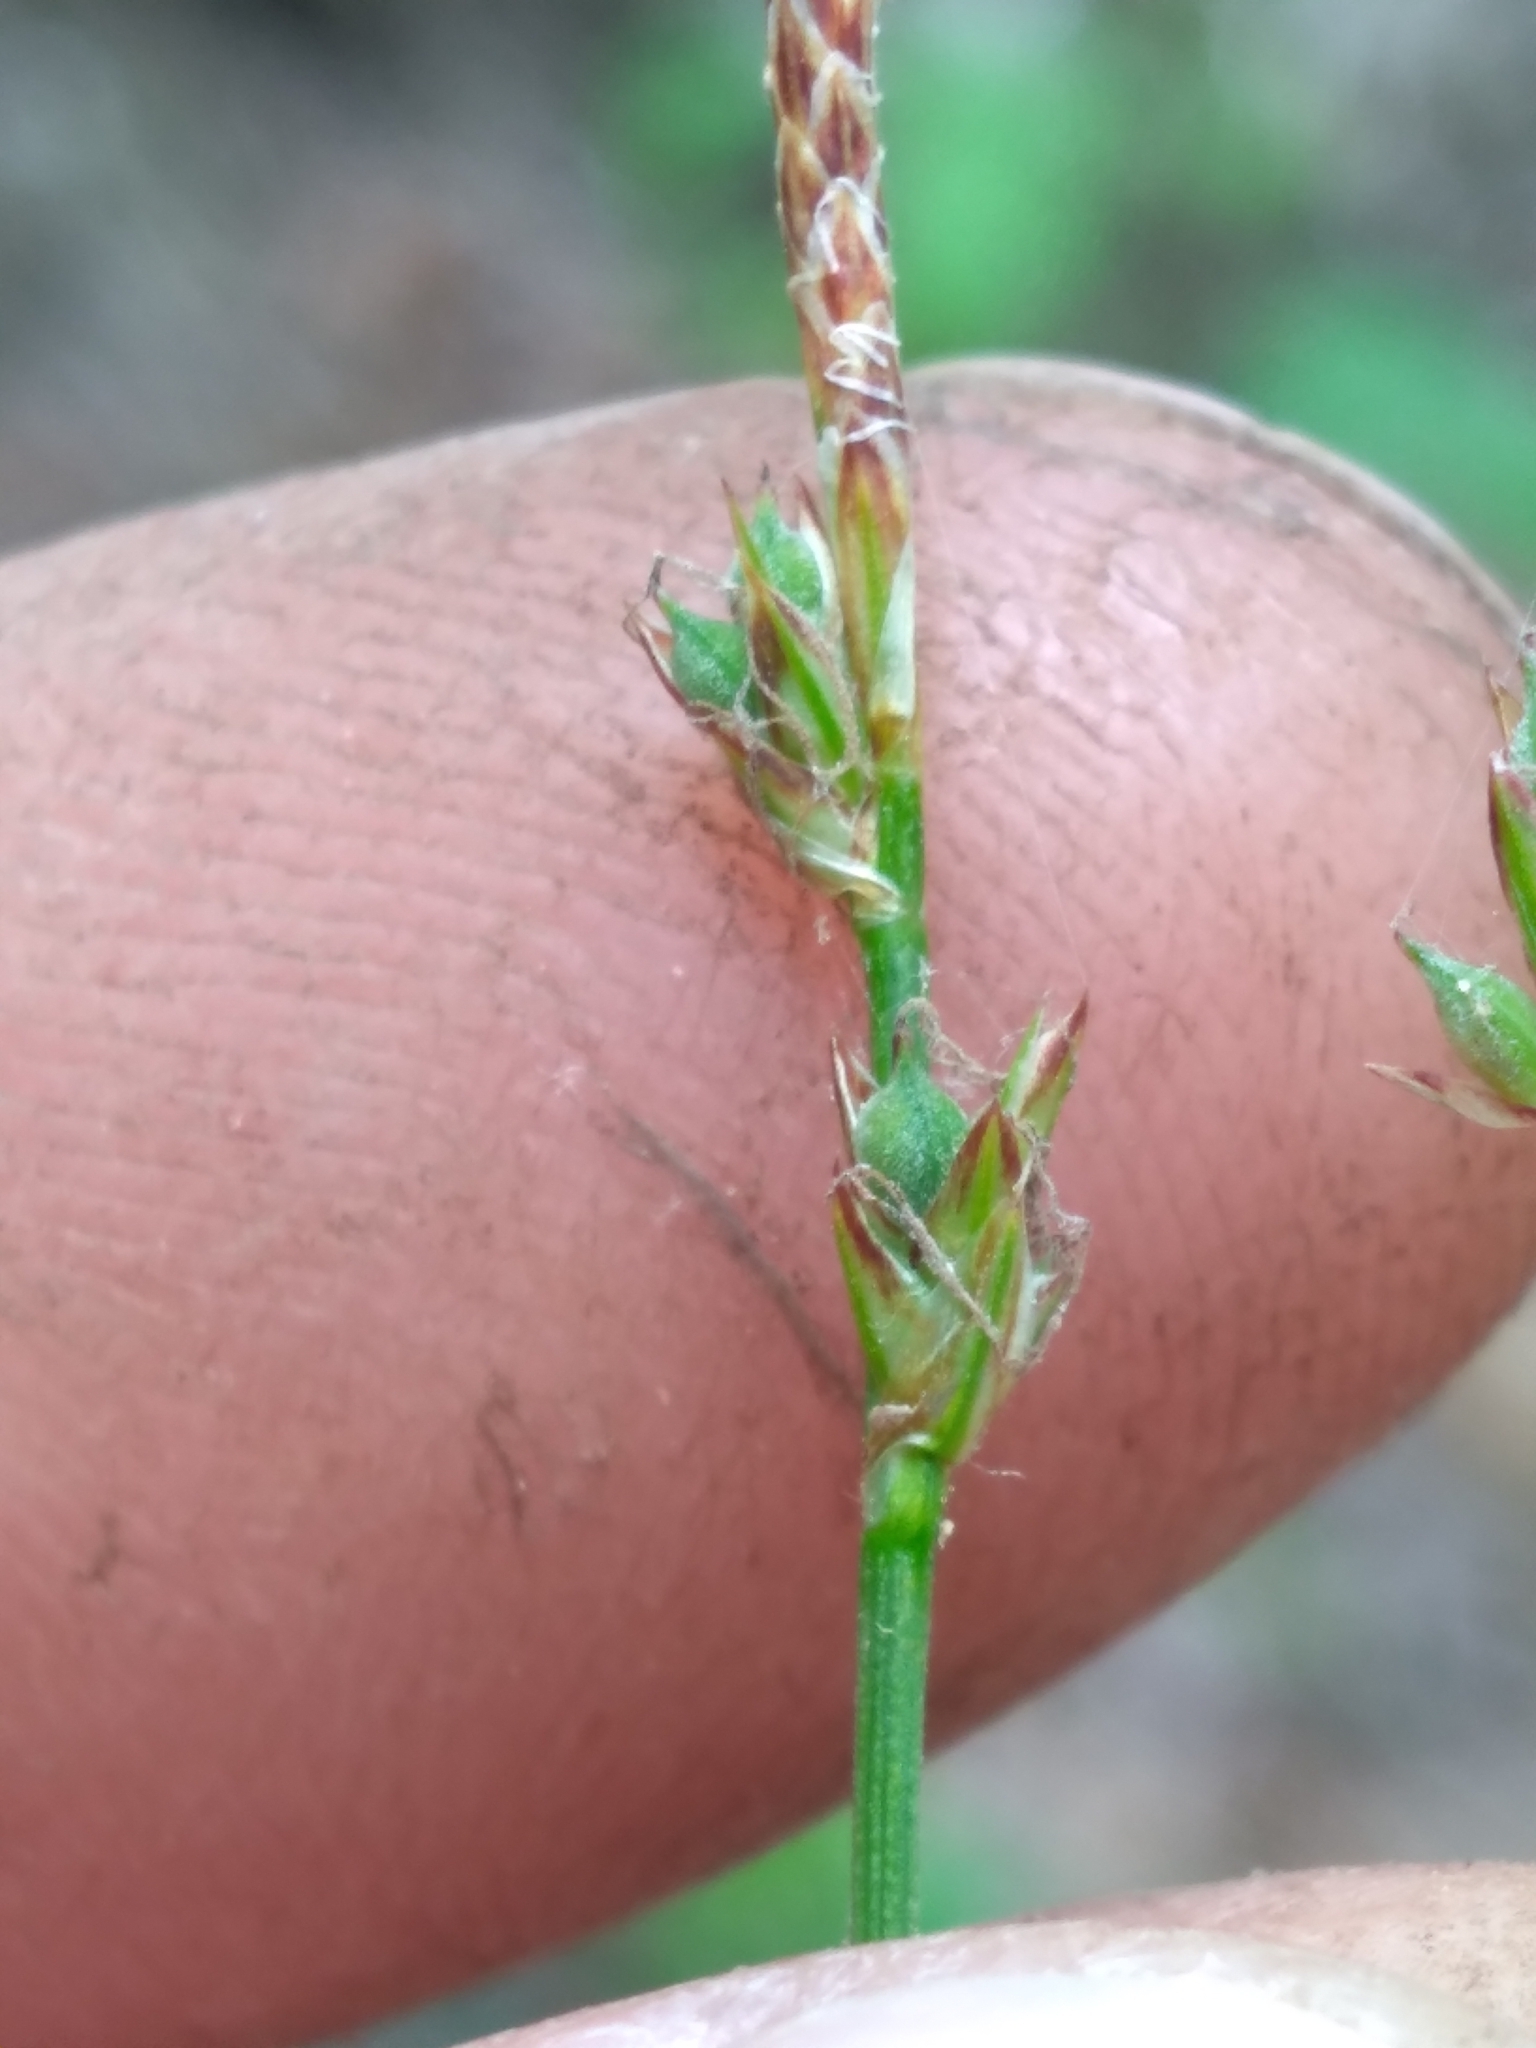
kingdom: Plantae
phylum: Tracheophyta
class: Liliopsida
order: Poales
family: Cyperaceae
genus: Carex
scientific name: Carex pensylvanica
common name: Common oak sedge
